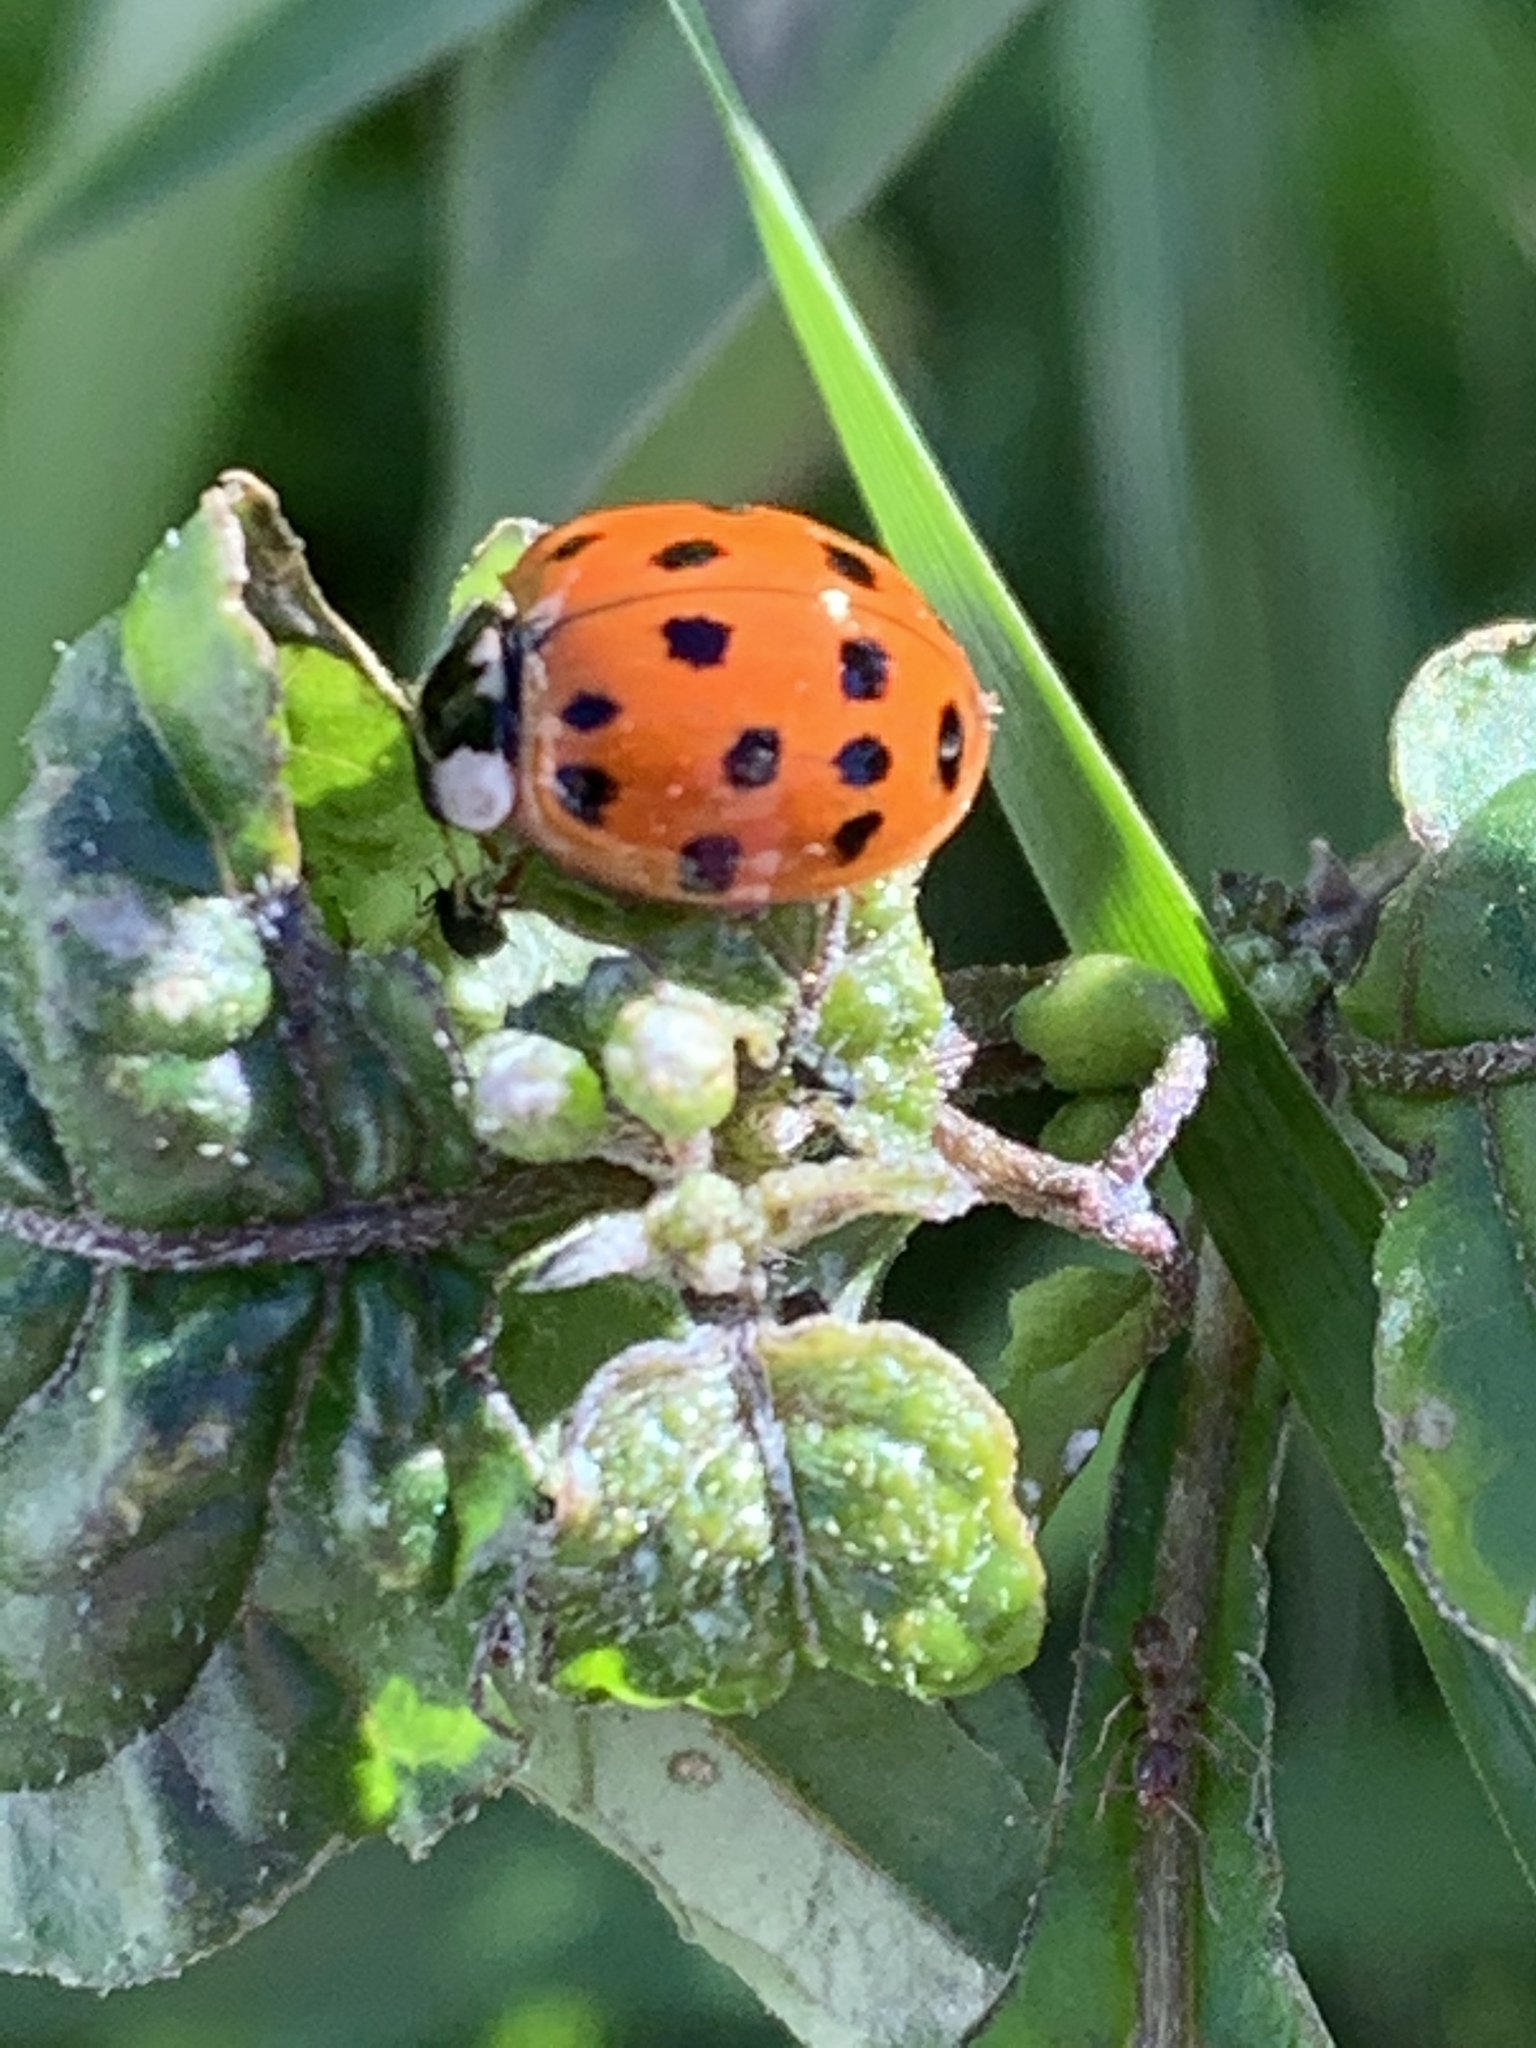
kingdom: Animalia
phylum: Arthropoda
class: Insecta
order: Coleoptera
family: Coccinellidae
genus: Harmonia
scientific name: Harmonia axyridis
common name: Harlequin ladybird
